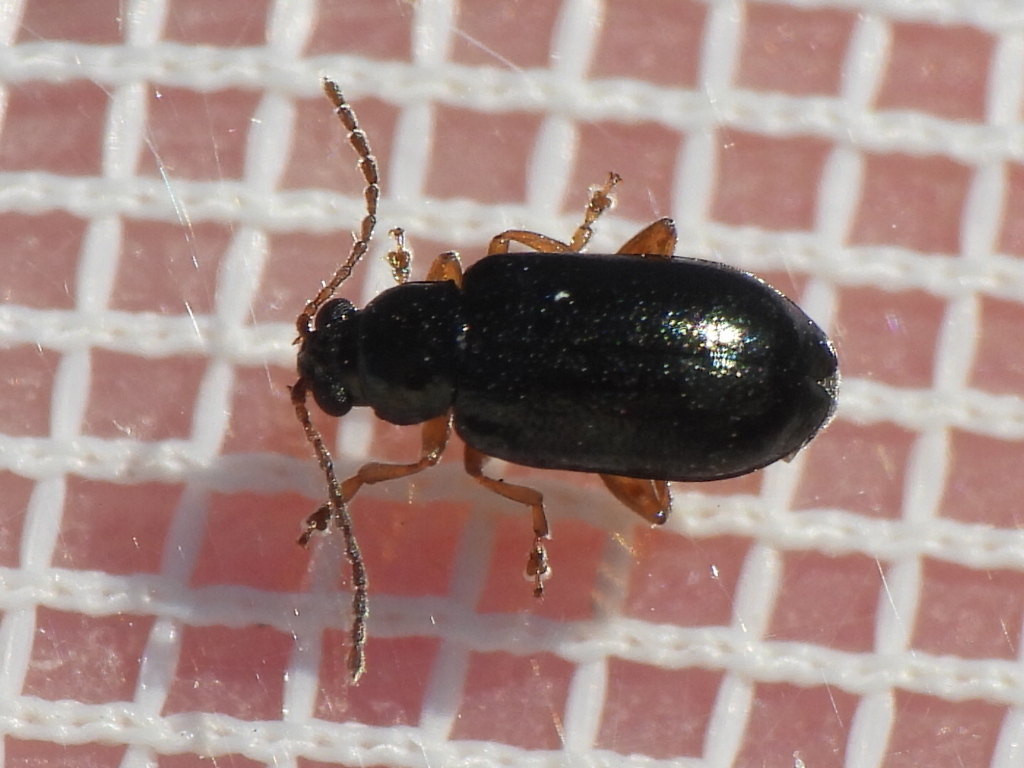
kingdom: Animalia
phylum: Arthropoda
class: Insecta
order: Coleoptera
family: Chrysomelidae
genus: Lysathia
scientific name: Lysathia ludoviciana
